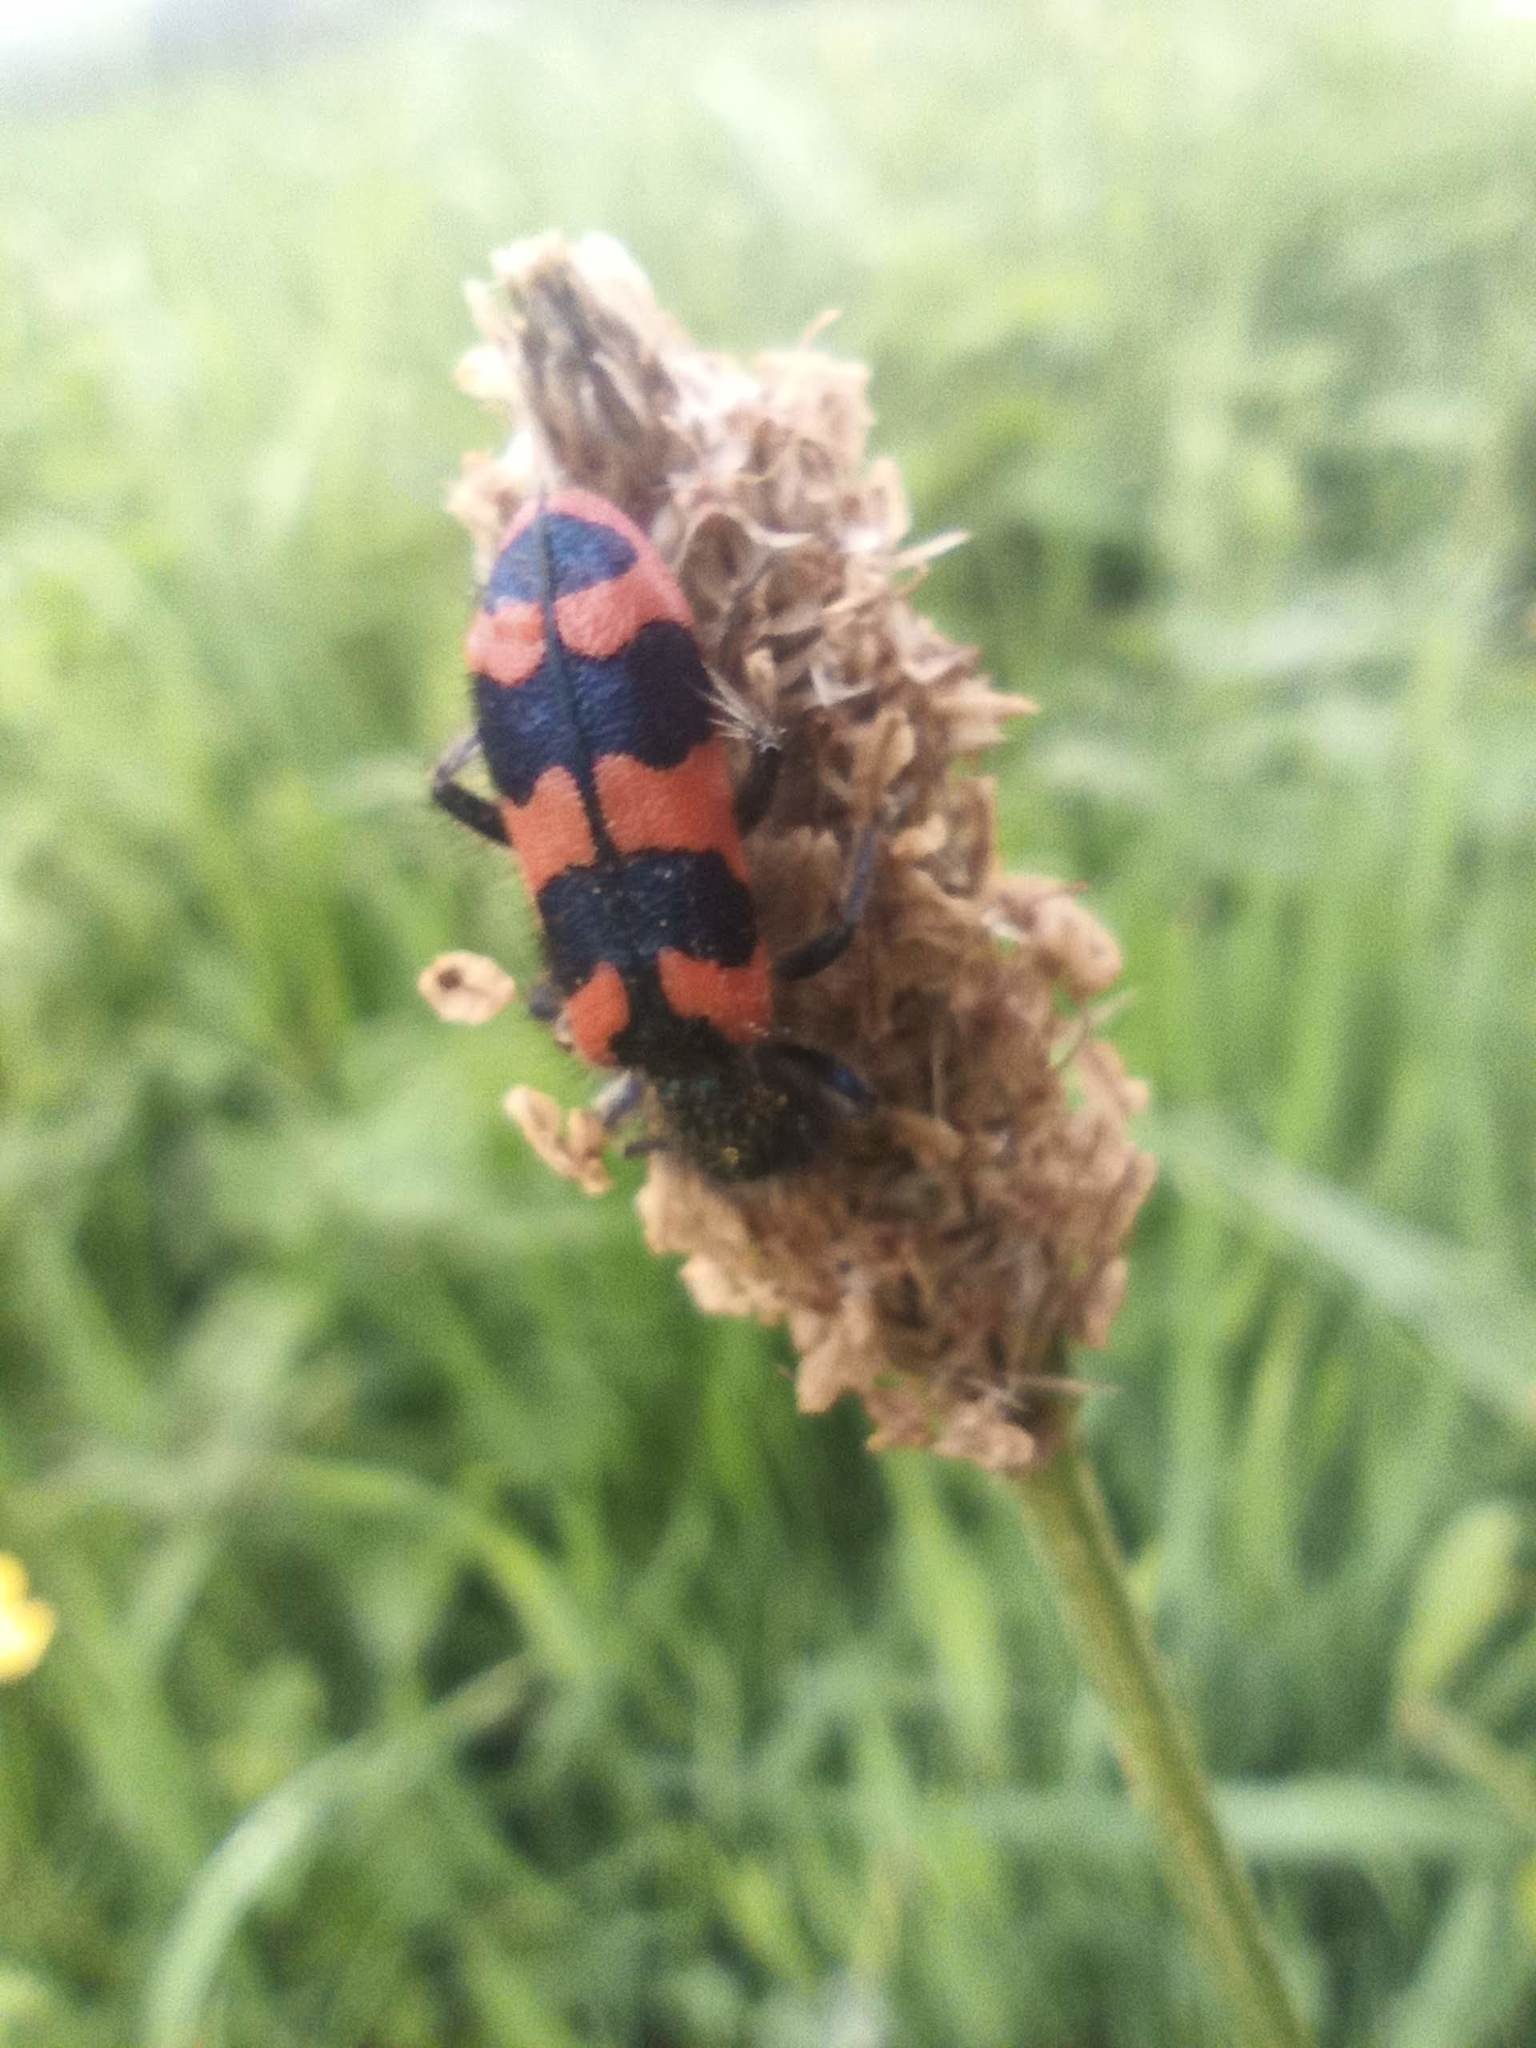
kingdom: Animalia
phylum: Arthropoda
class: Insecta
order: Coleoptera
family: Cleridae
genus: Trichodes
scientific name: Trichodes alvearius
